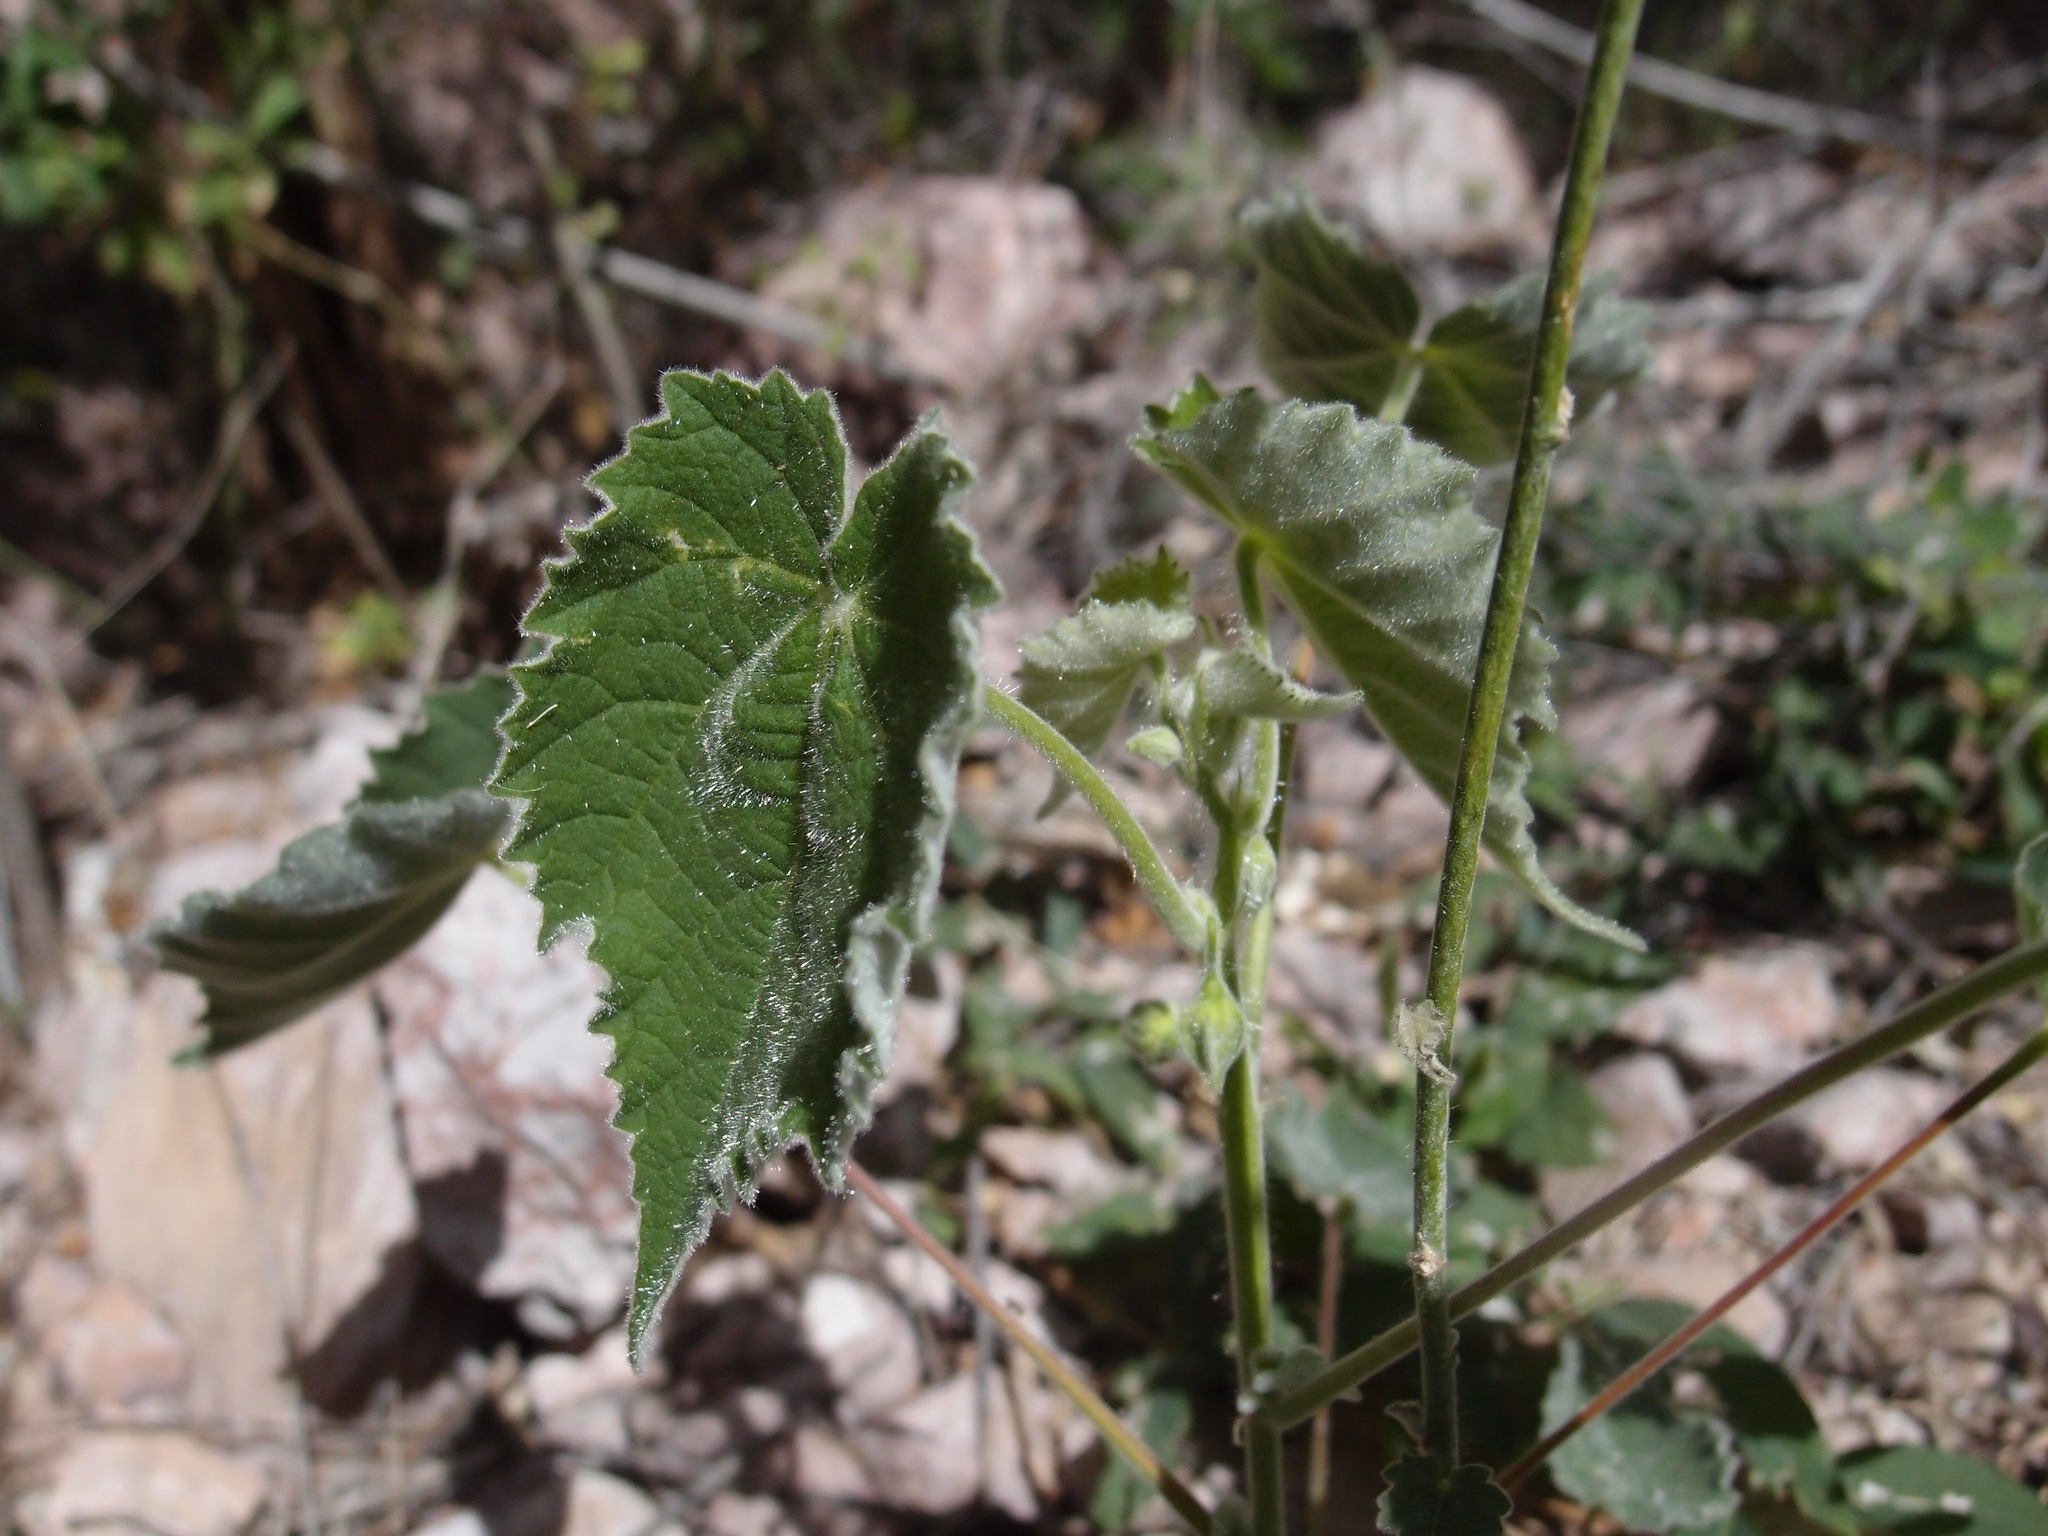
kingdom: Plantae
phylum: Tracheophyta
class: Magnoliopsida
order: Malvales
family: Malvaceae
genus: Abutilon
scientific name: Abutilon parishii
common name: Parish's abutilon
